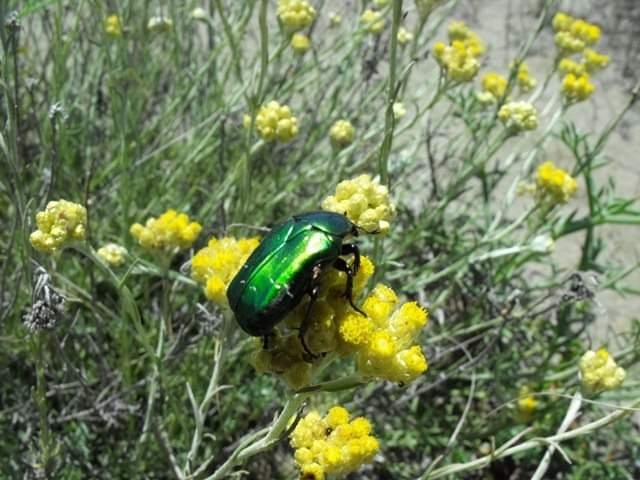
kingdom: Animalia
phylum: Arthropoda
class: Insecta
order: Coleoptera
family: Scarabaeidae
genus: Cetonia
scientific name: Cetonia aurata
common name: Rose chafer
